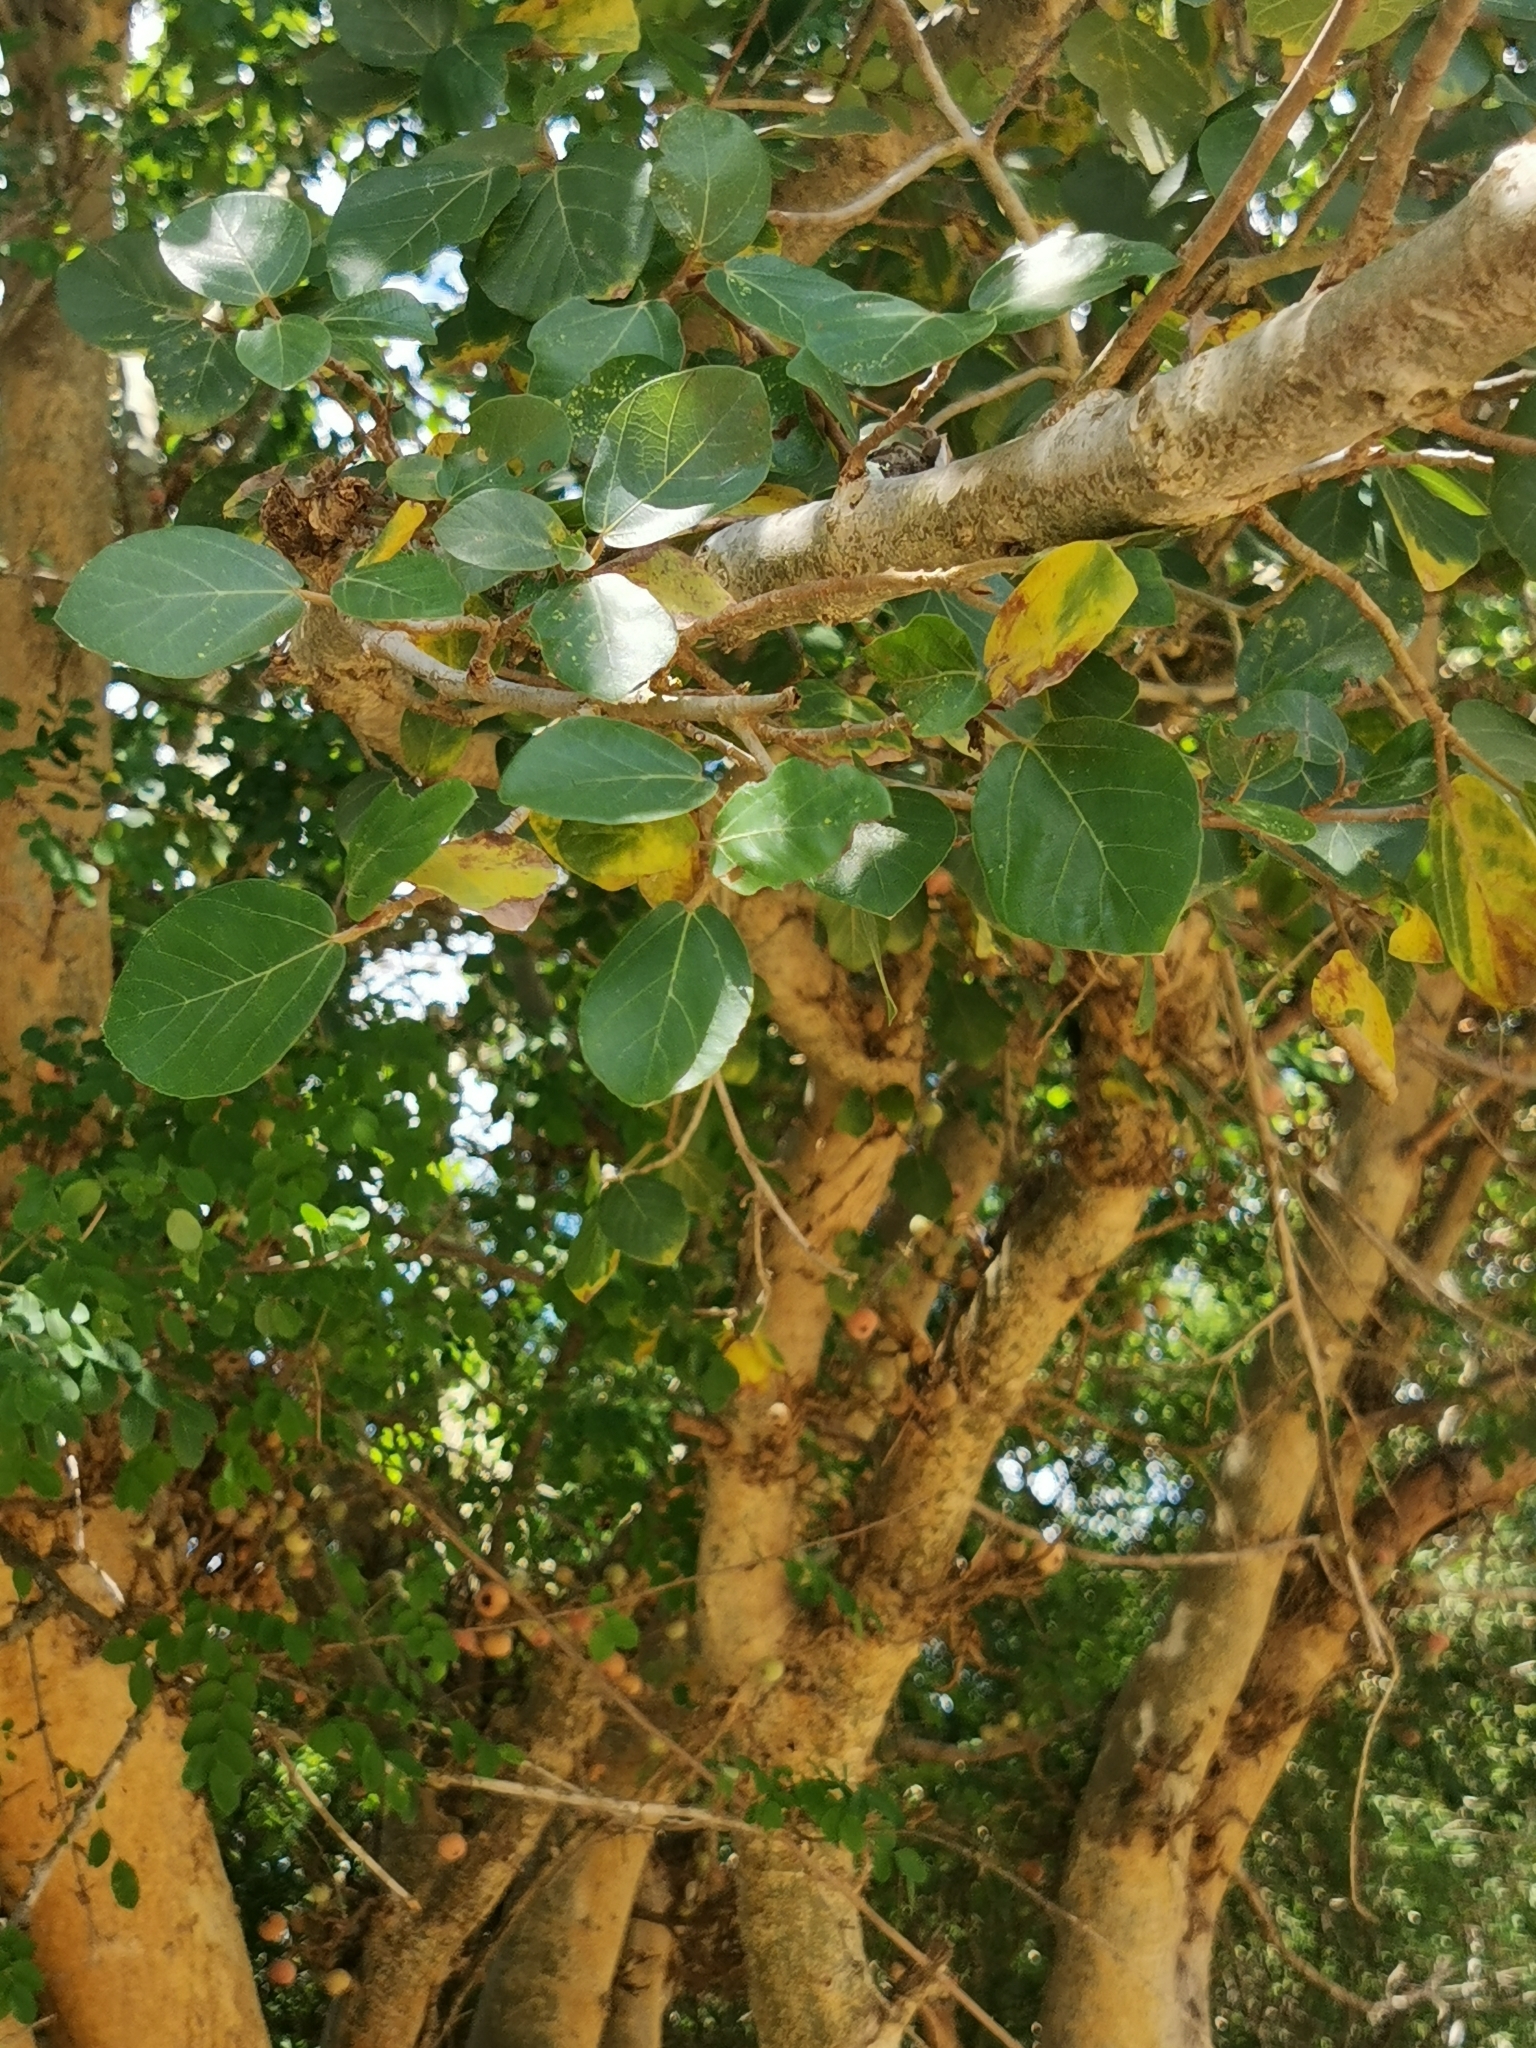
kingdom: Plantae
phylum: Tracheophyta
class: Magnoliopsida
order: Rosales
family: Moraceae
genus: Ficus
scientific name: Ficus sycomorus
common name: Sycomore
